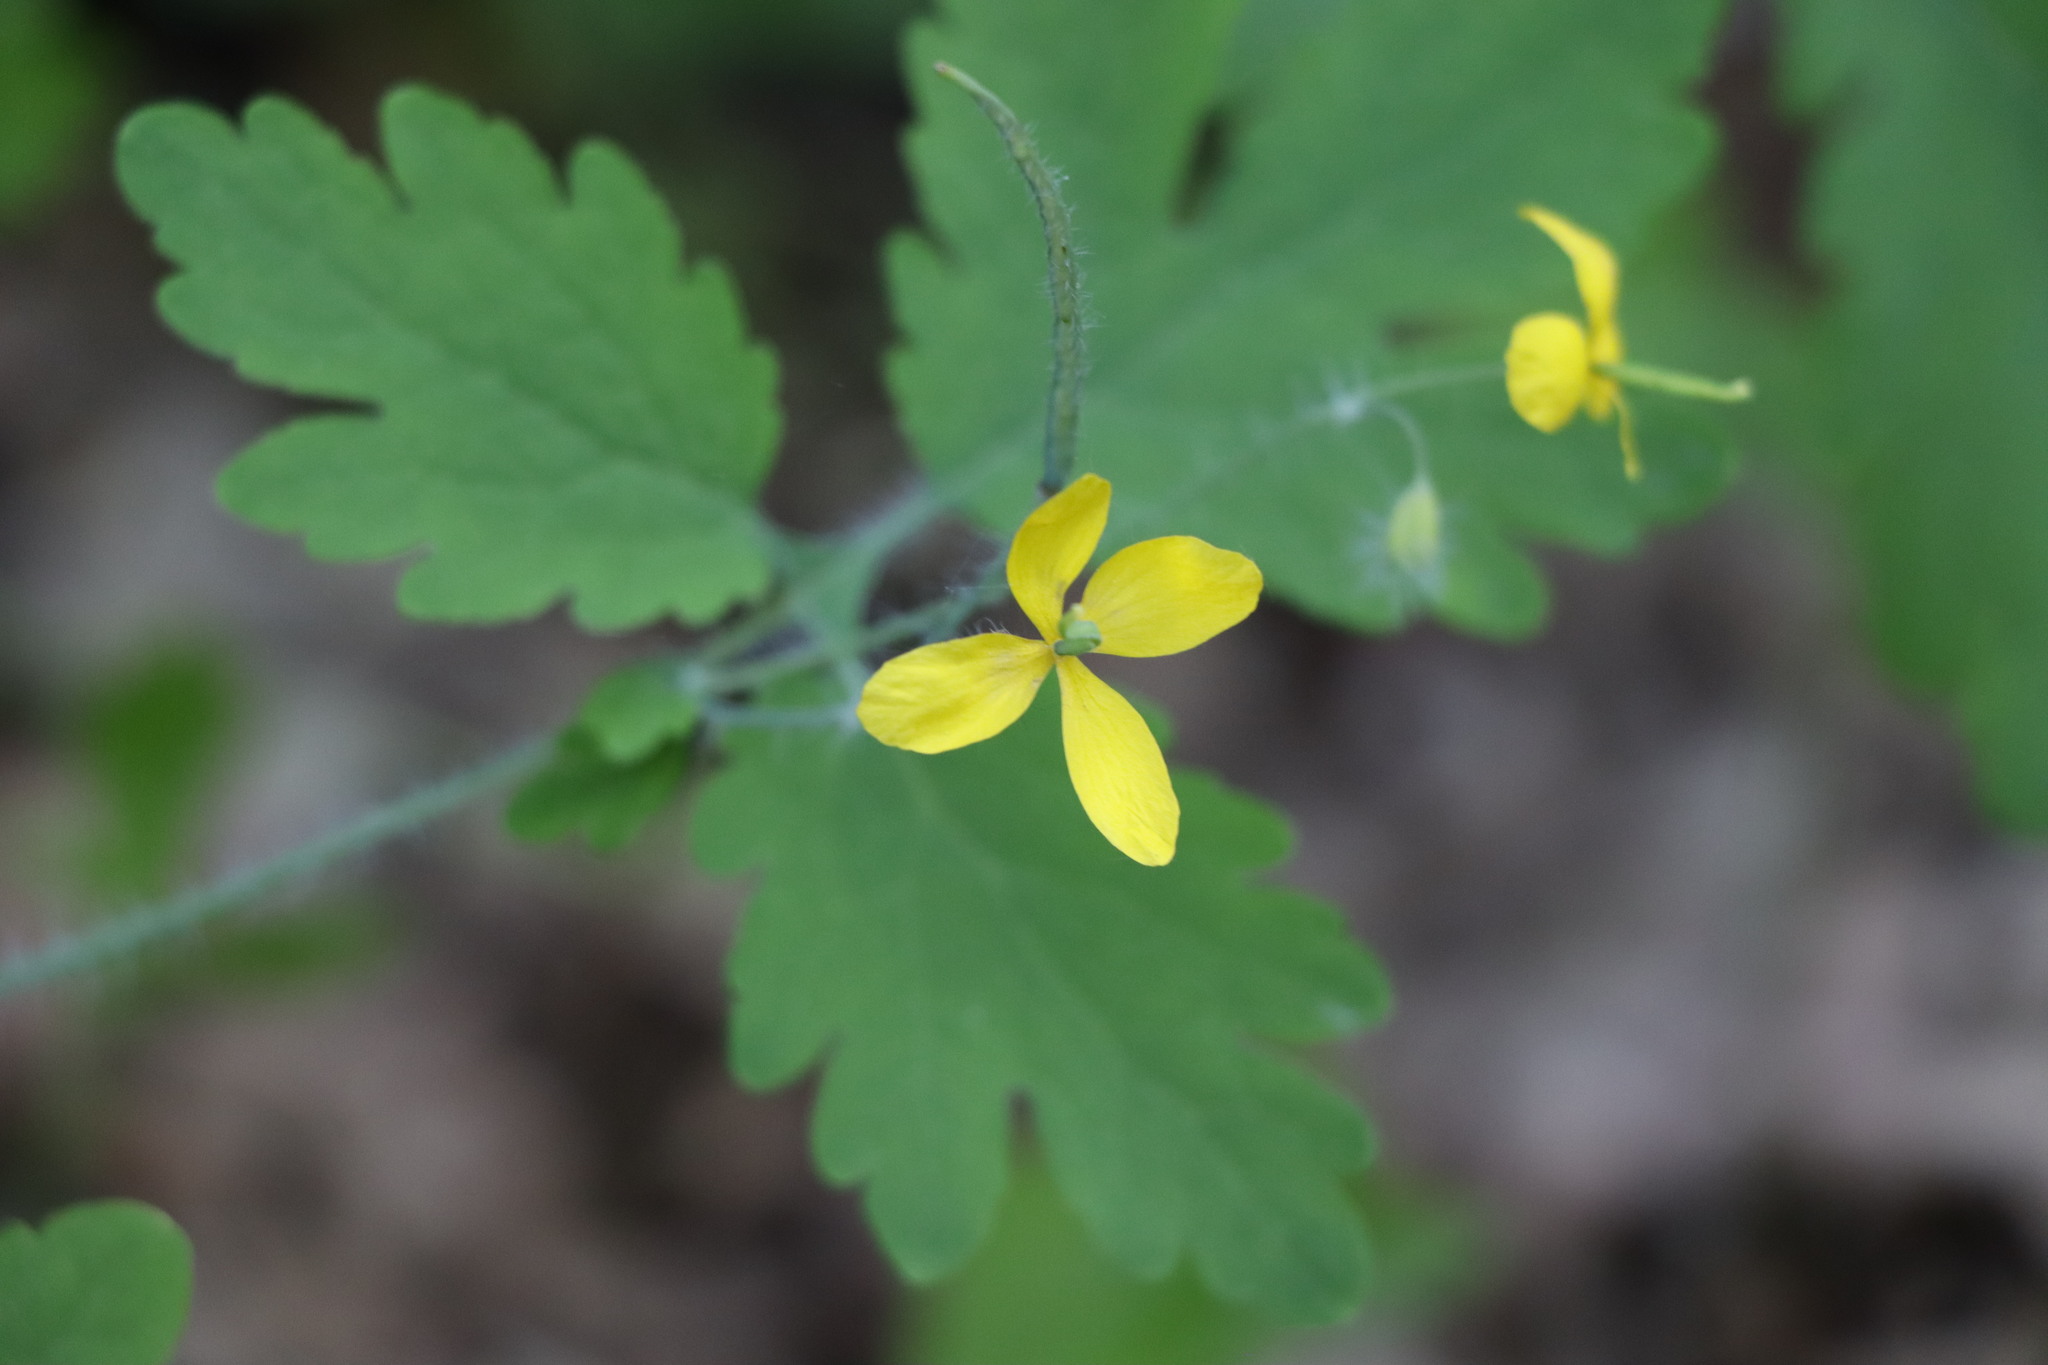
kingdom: Plantae
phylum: Tracheophyta
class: Magnoliopsida
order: Ranunculales
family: Papaveraceae
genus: Chelidonium
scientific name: Chelidonium majus
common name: Greater celandine
